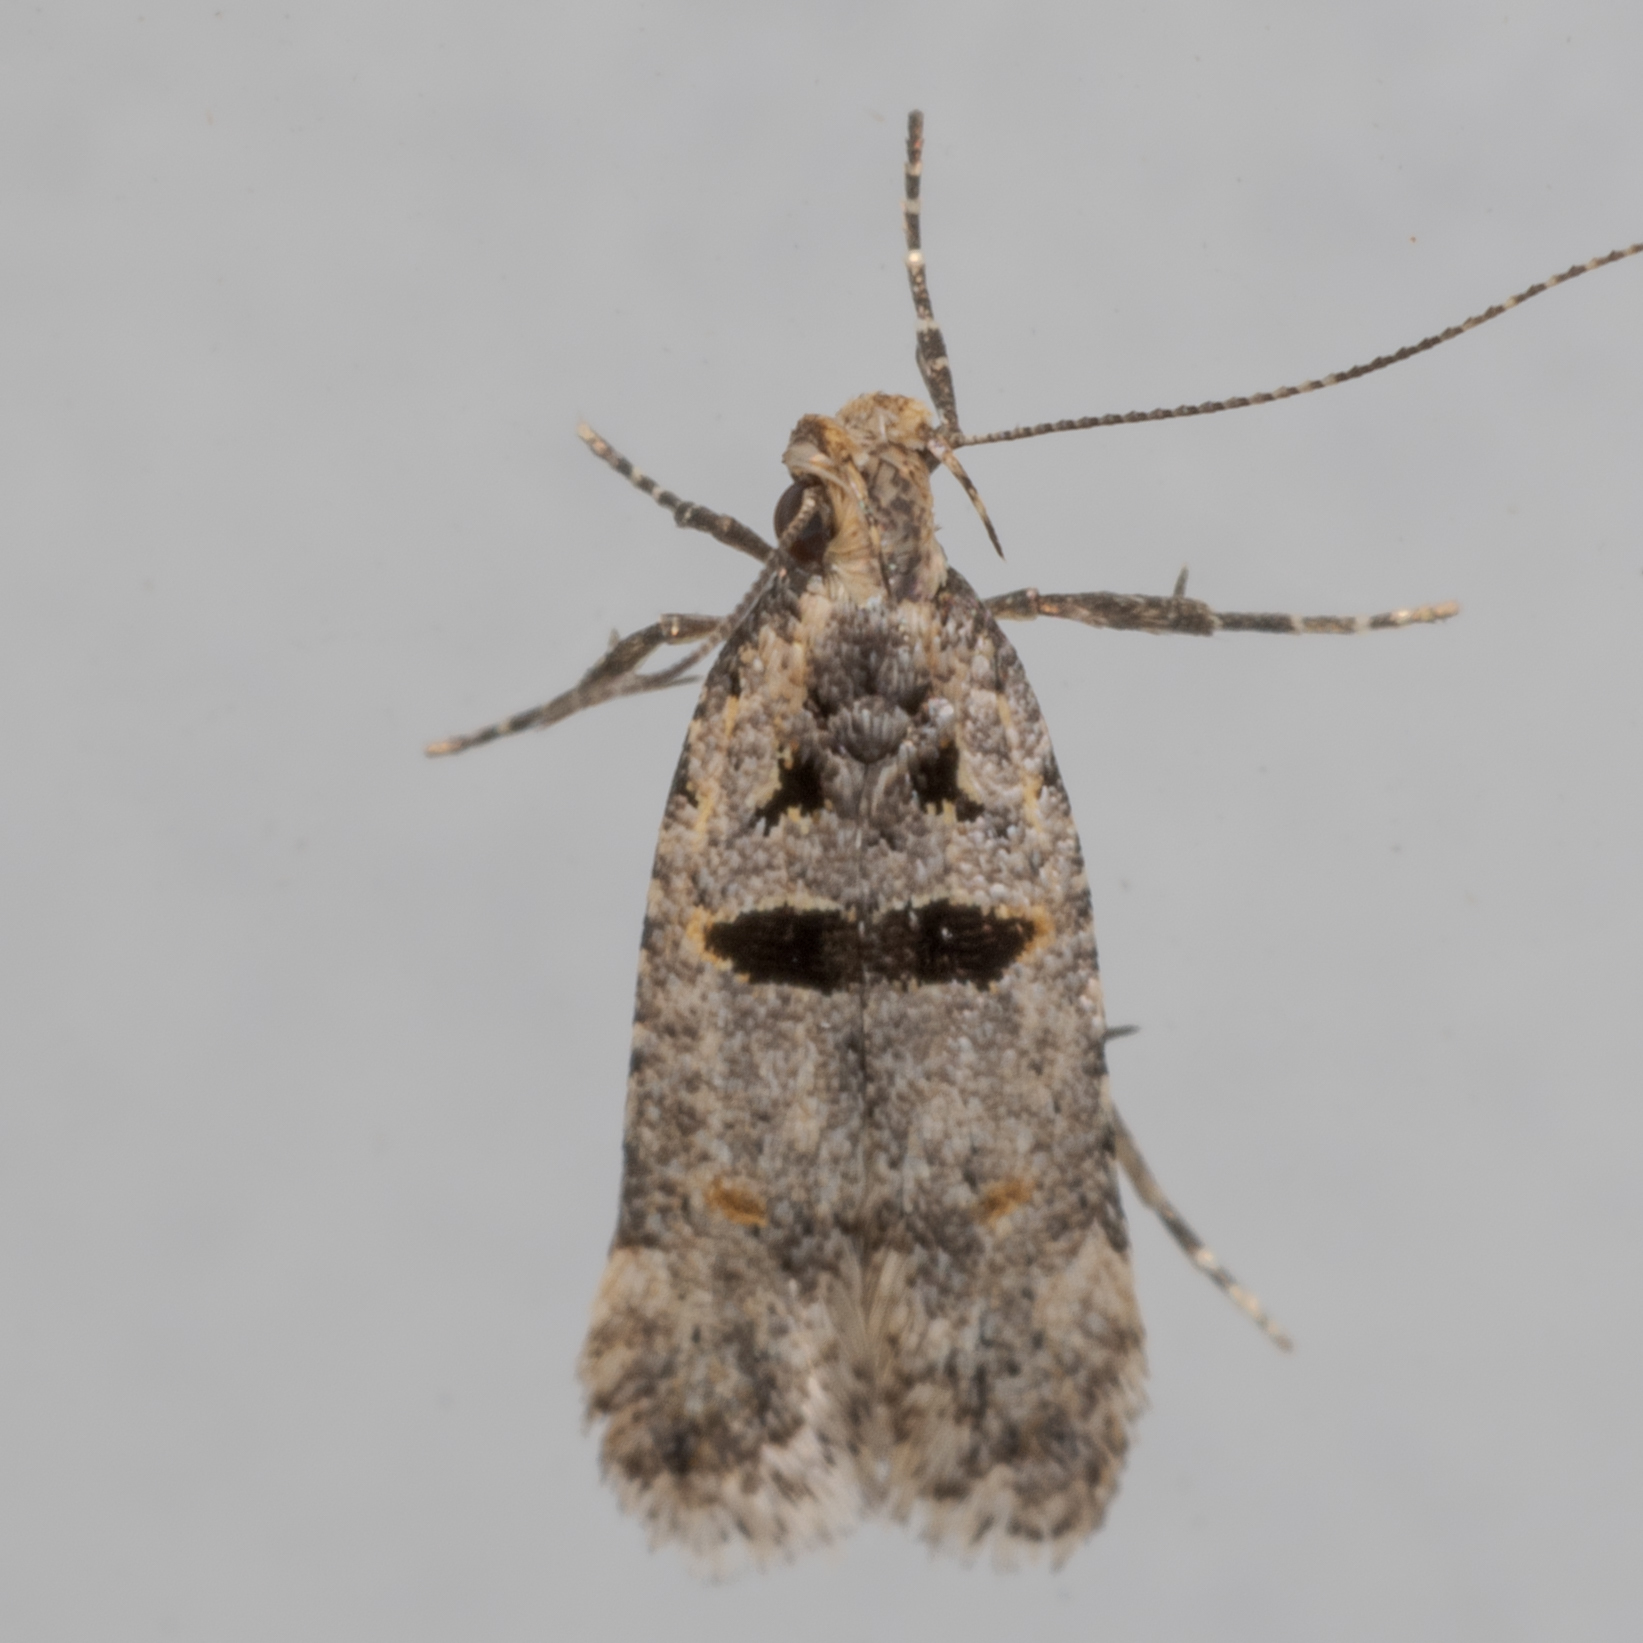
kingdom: Animalia
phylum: Arthropoda
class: Insecta
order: Lepidoptera
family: Gelechiidae
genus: Deltophora
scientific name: Deltophora glandiferella
